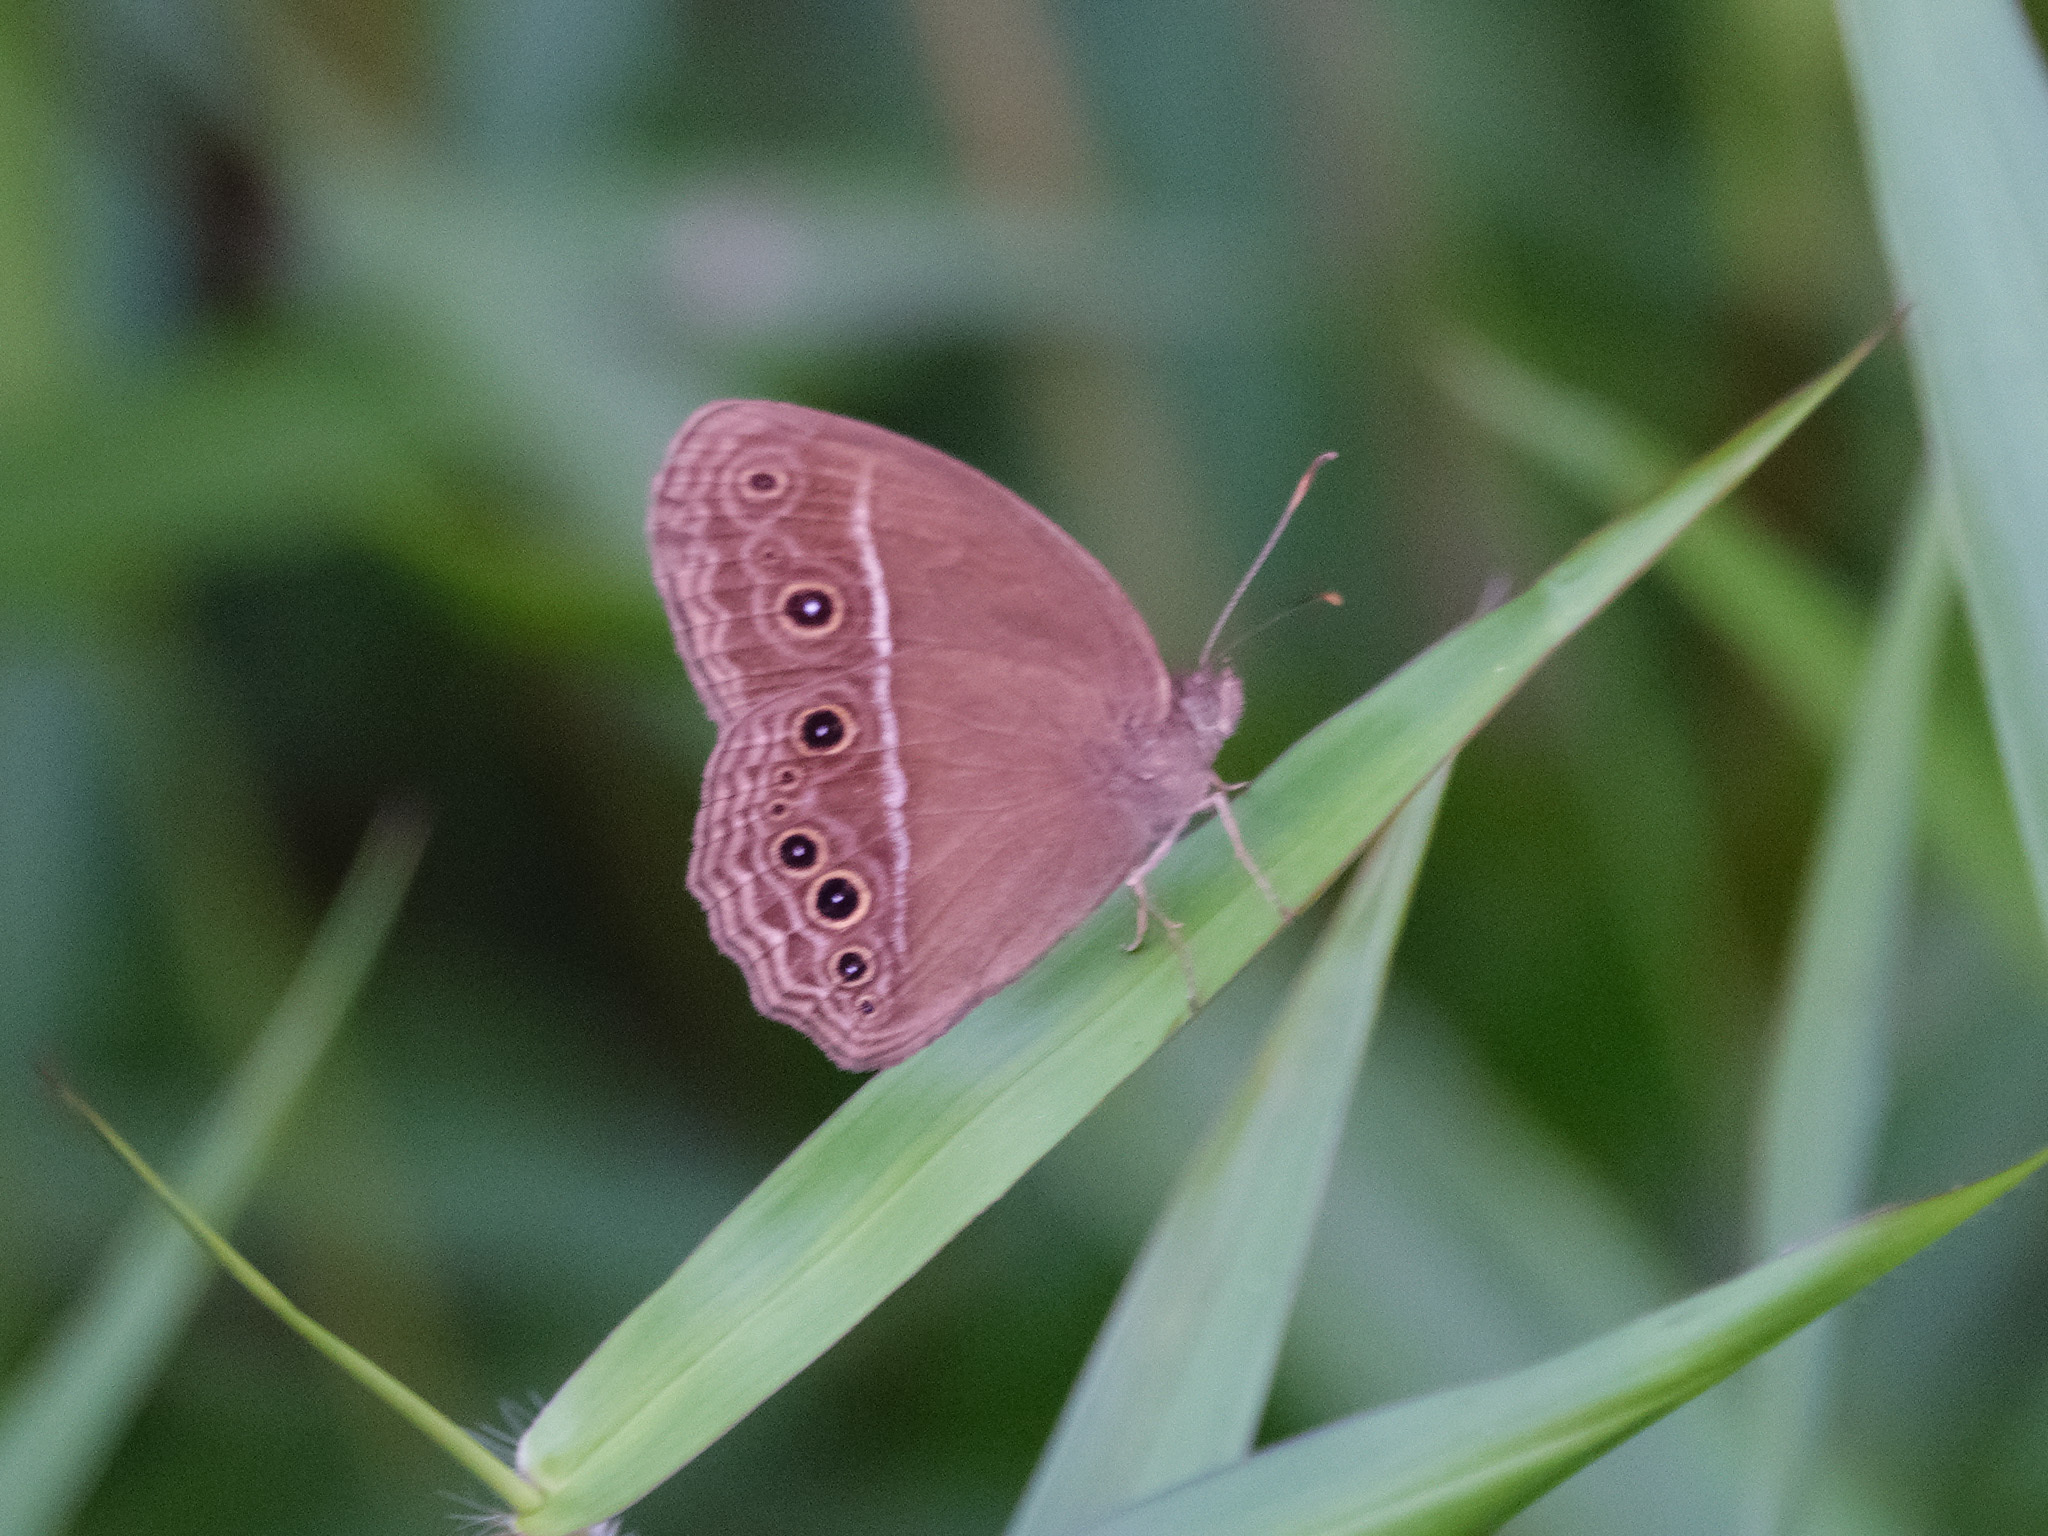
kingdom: Animalia
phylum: Arthropoda
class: Insecta
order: Lepidoptera
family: Nymphalidae
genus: Mycalesis
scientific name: Mycalesis perseus
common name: Dingy bushbrown
